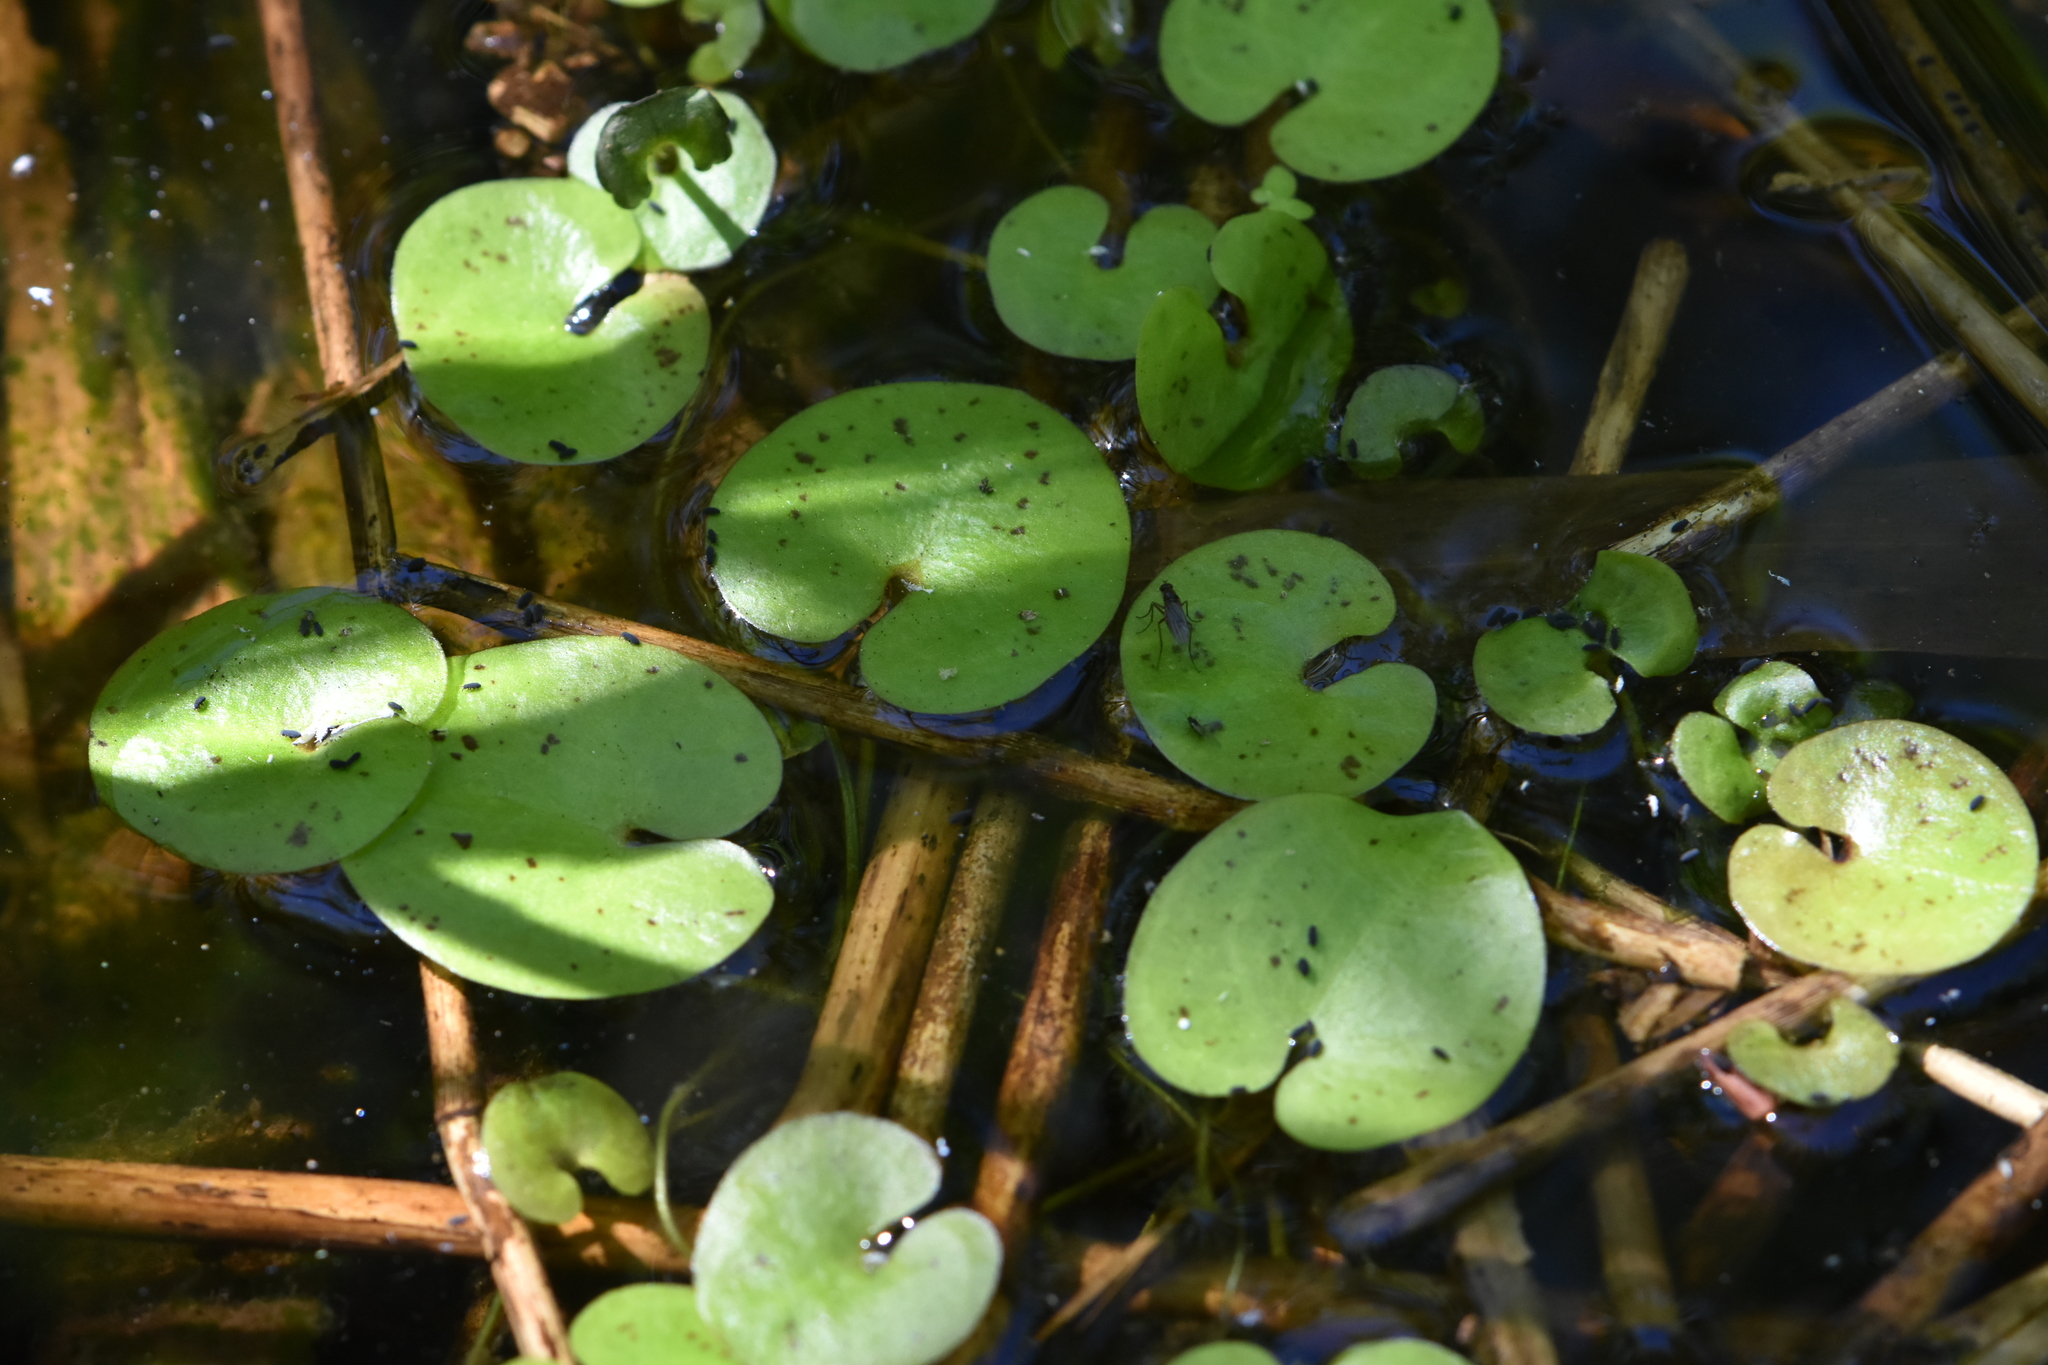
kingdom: Plantae
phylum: Tracheophyta
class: Liliopsida
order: Alismatales
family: Hydrocharitaceae
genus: Hydrocharis
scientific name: Hydrocharis morsus-ranae
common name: Frogbit
